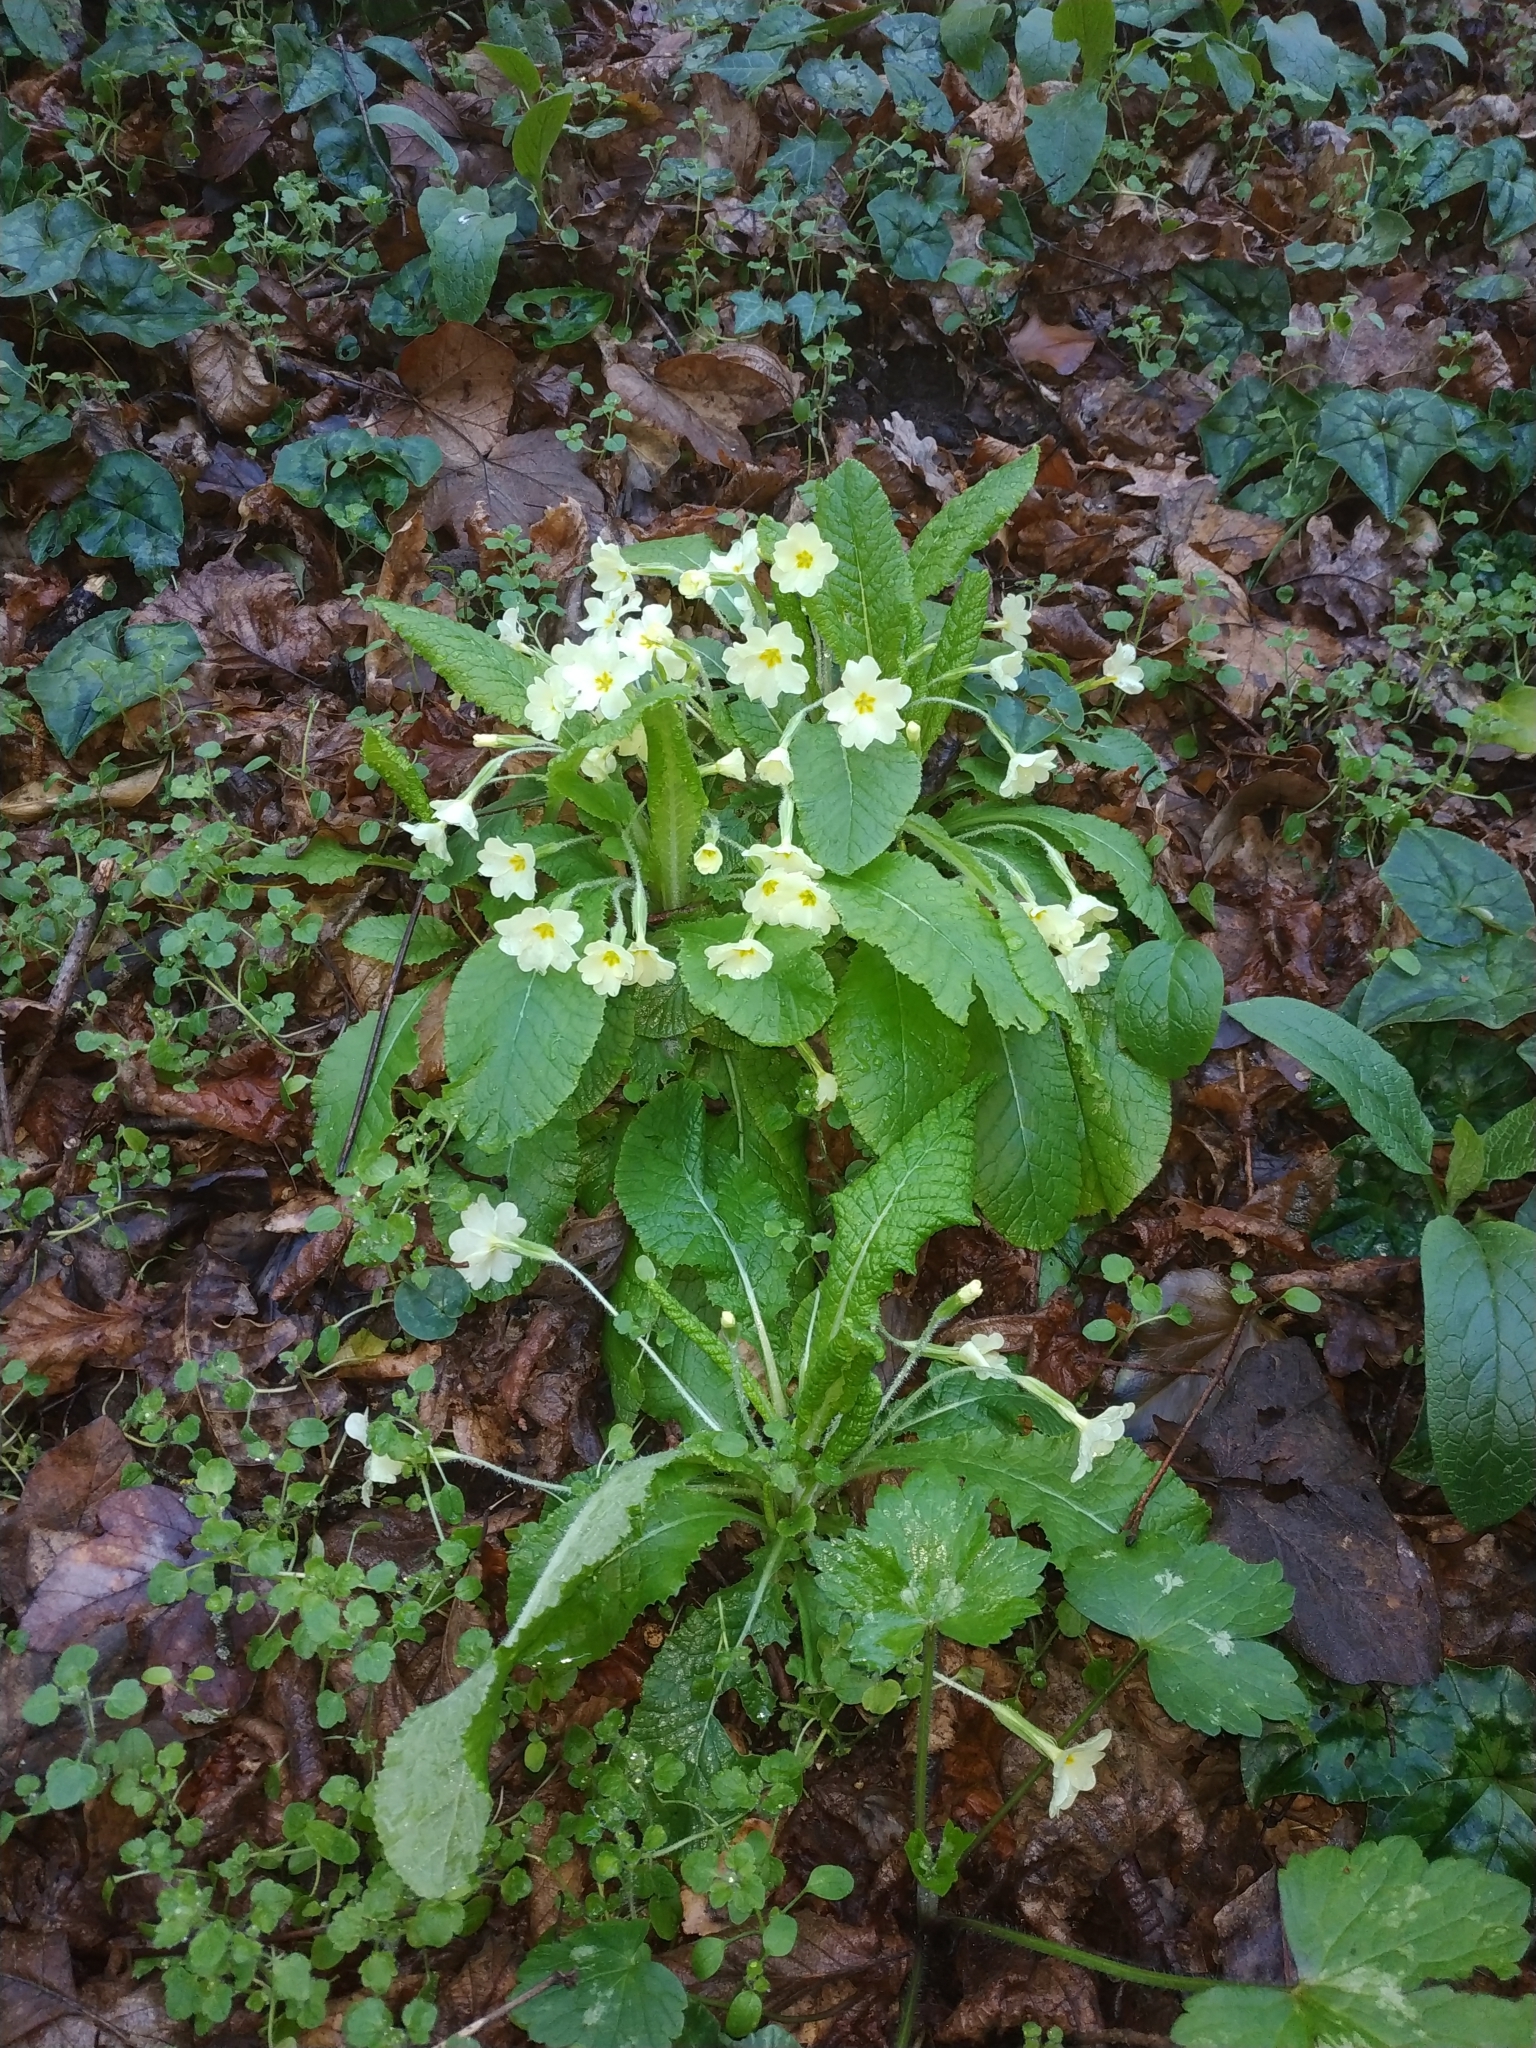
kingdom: Plantae
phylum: Tracheophyta
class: Magnoliopsida
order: Ericales
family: Primulaceae
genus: Primula
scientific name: Primula vulgaris
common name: Primrose
